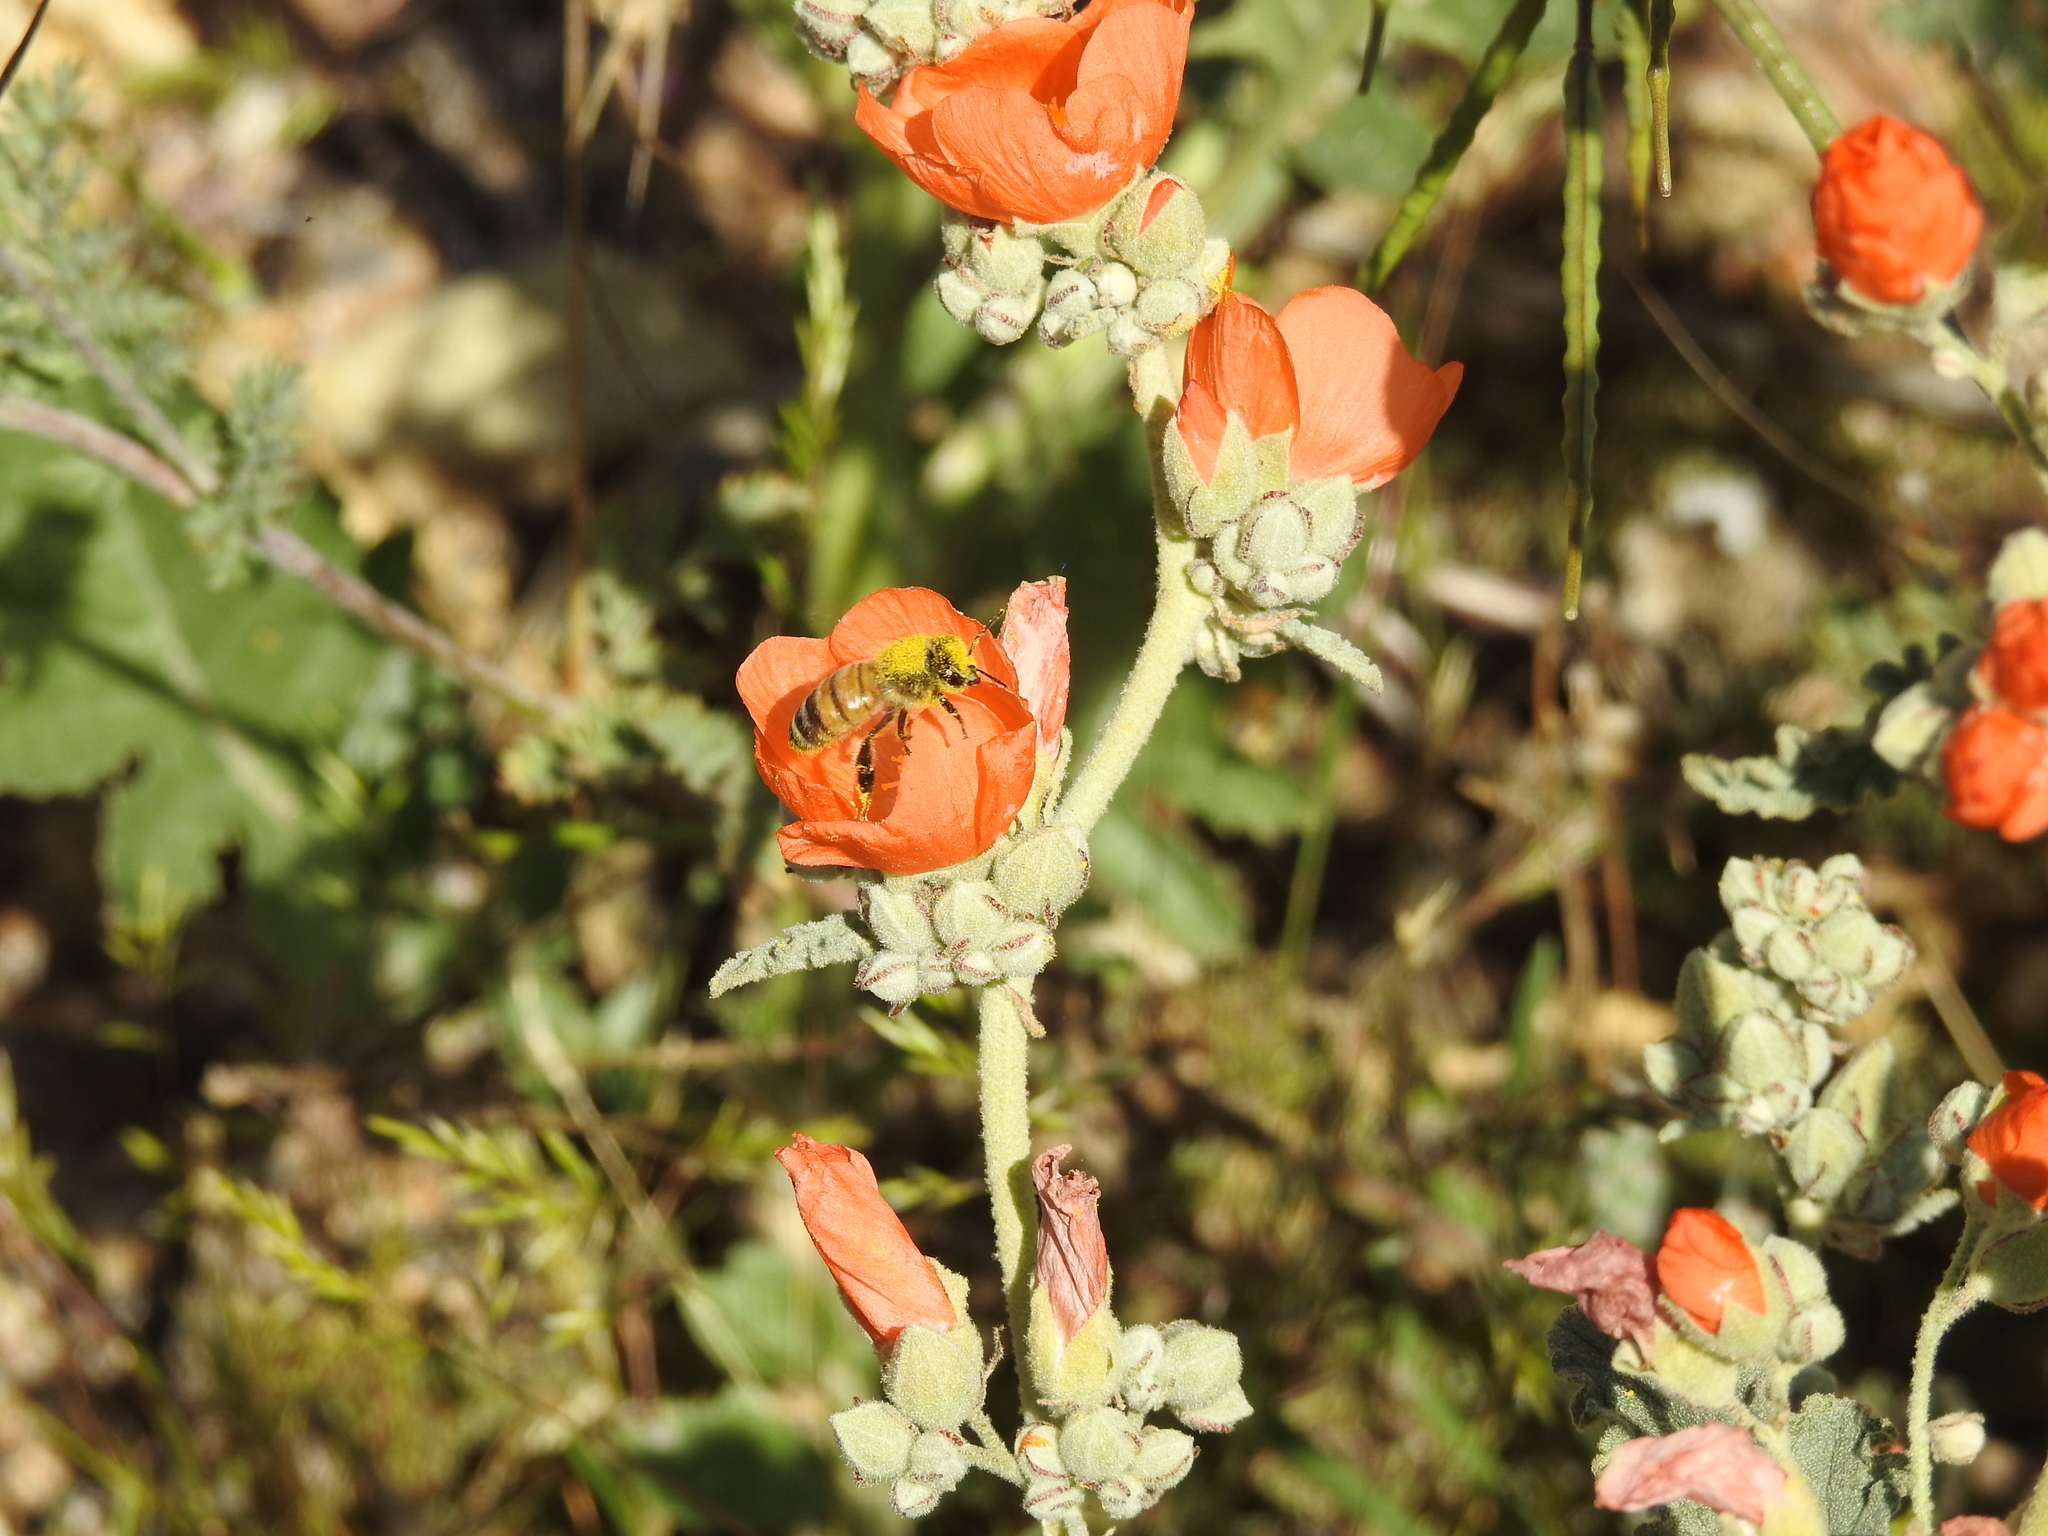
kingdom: Animalia
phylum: Arthropoda
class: Insecta
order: Hymenoptera
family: Apidae
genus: Apis
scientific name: Apis mellifera
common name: Honey bee
